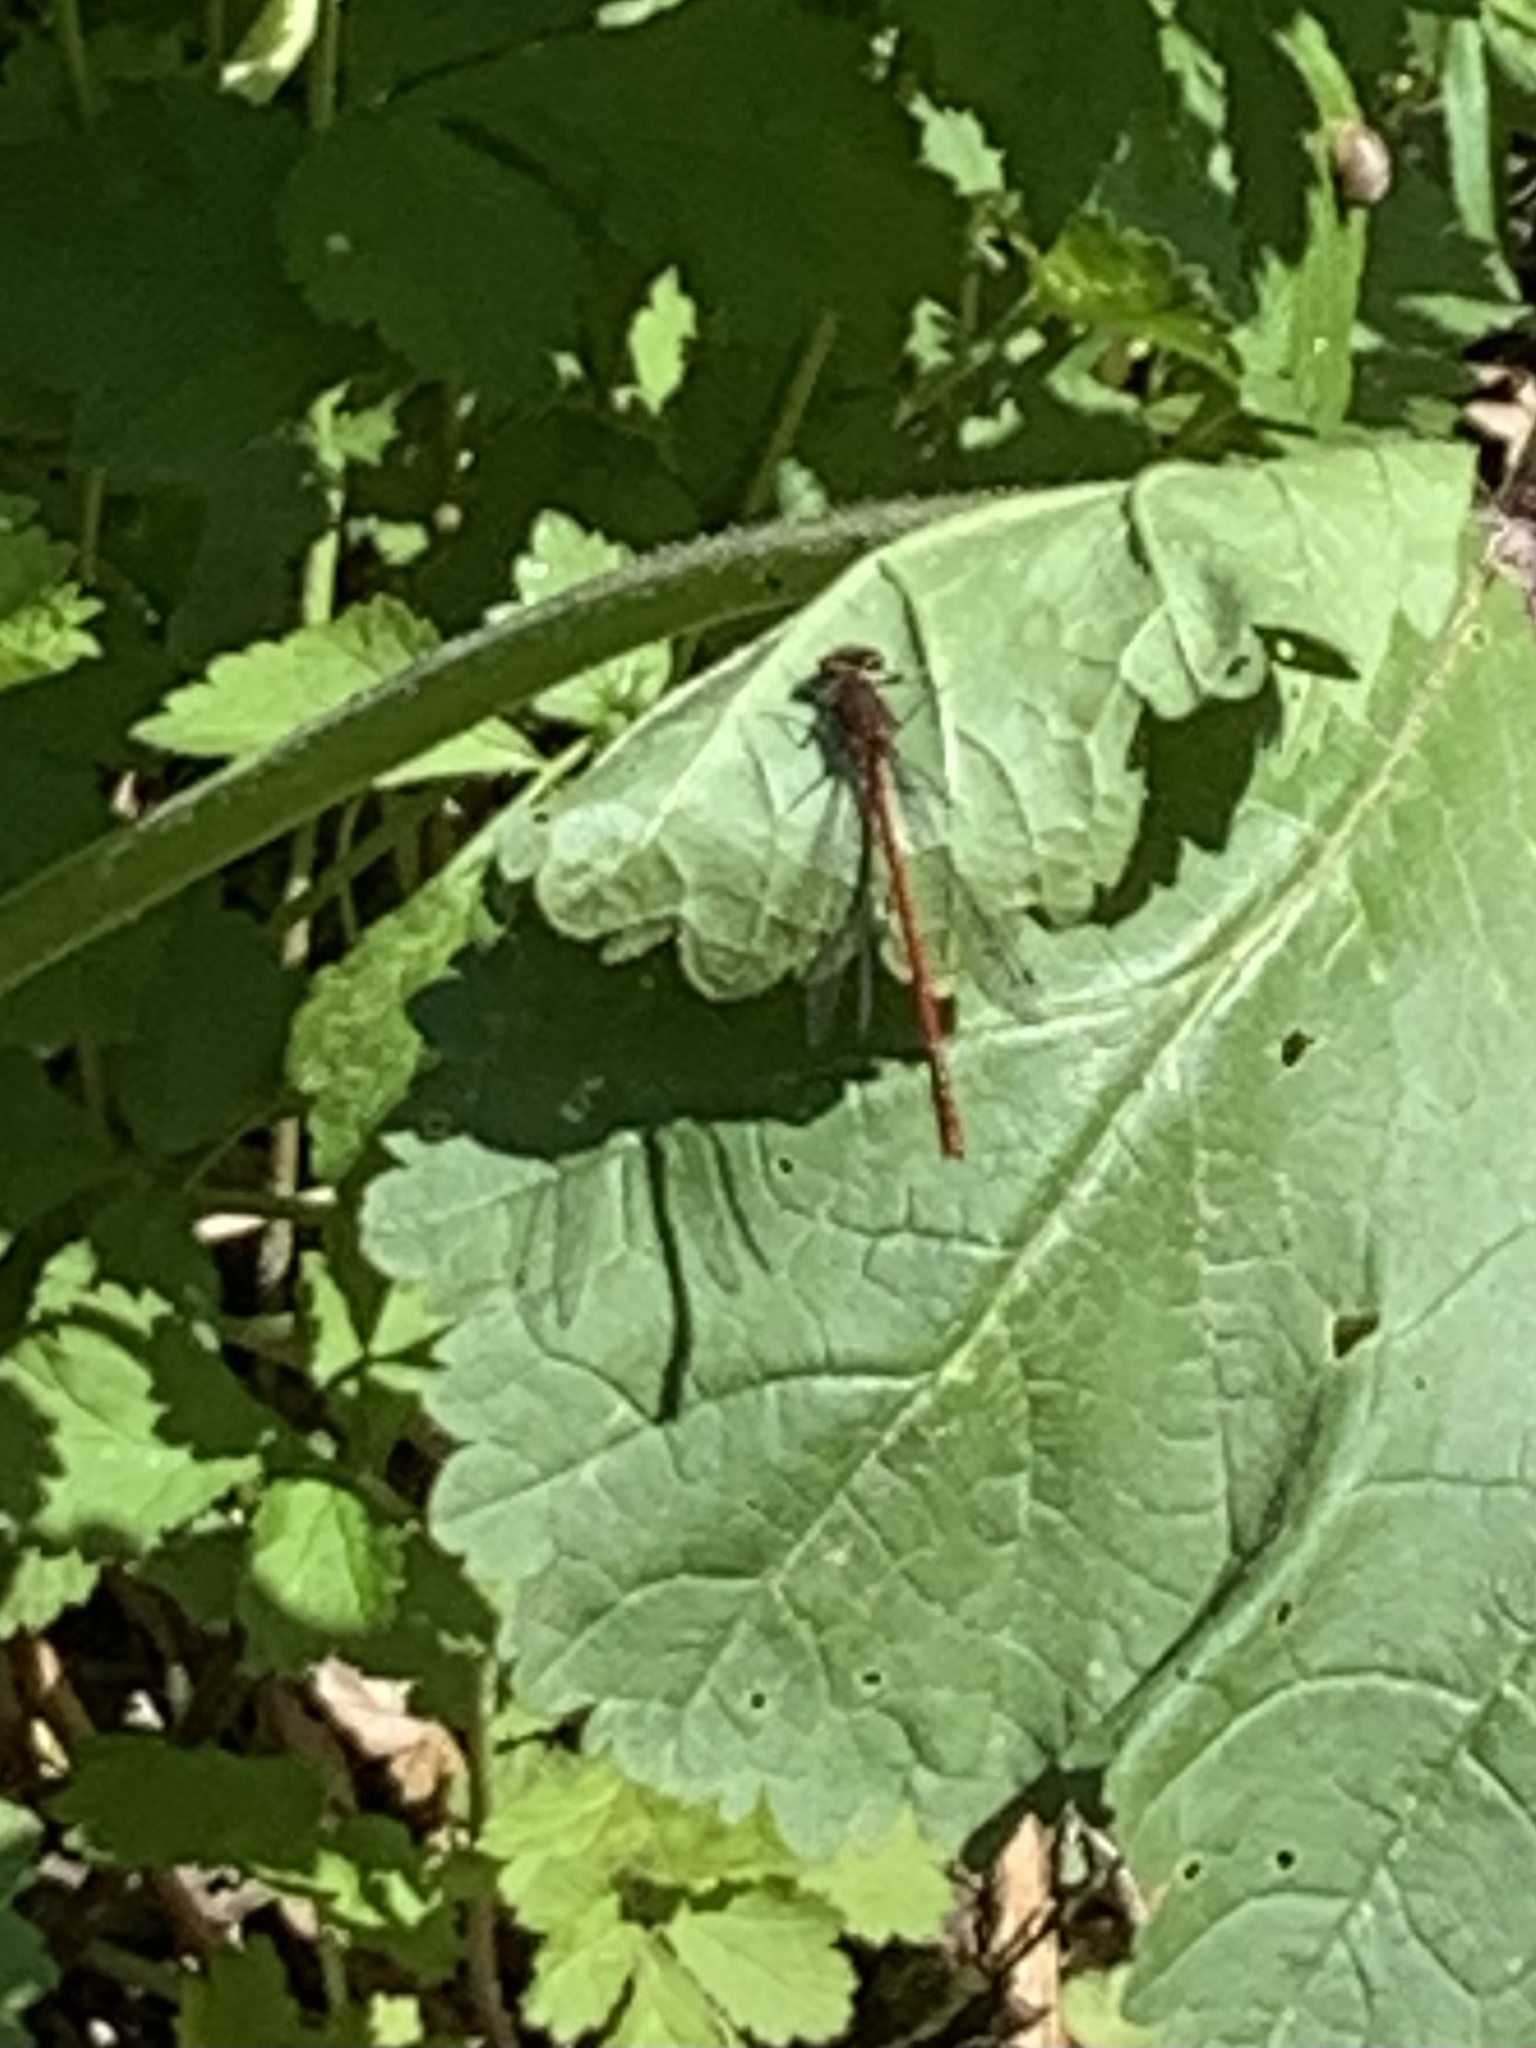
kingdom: Animalia
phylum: Arthropoda
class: Insecta
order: Odonata
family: Coenagrionidae
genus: Pyrrhosoma
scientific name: Pyrrhosoma nymphula
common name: Large red damsel
